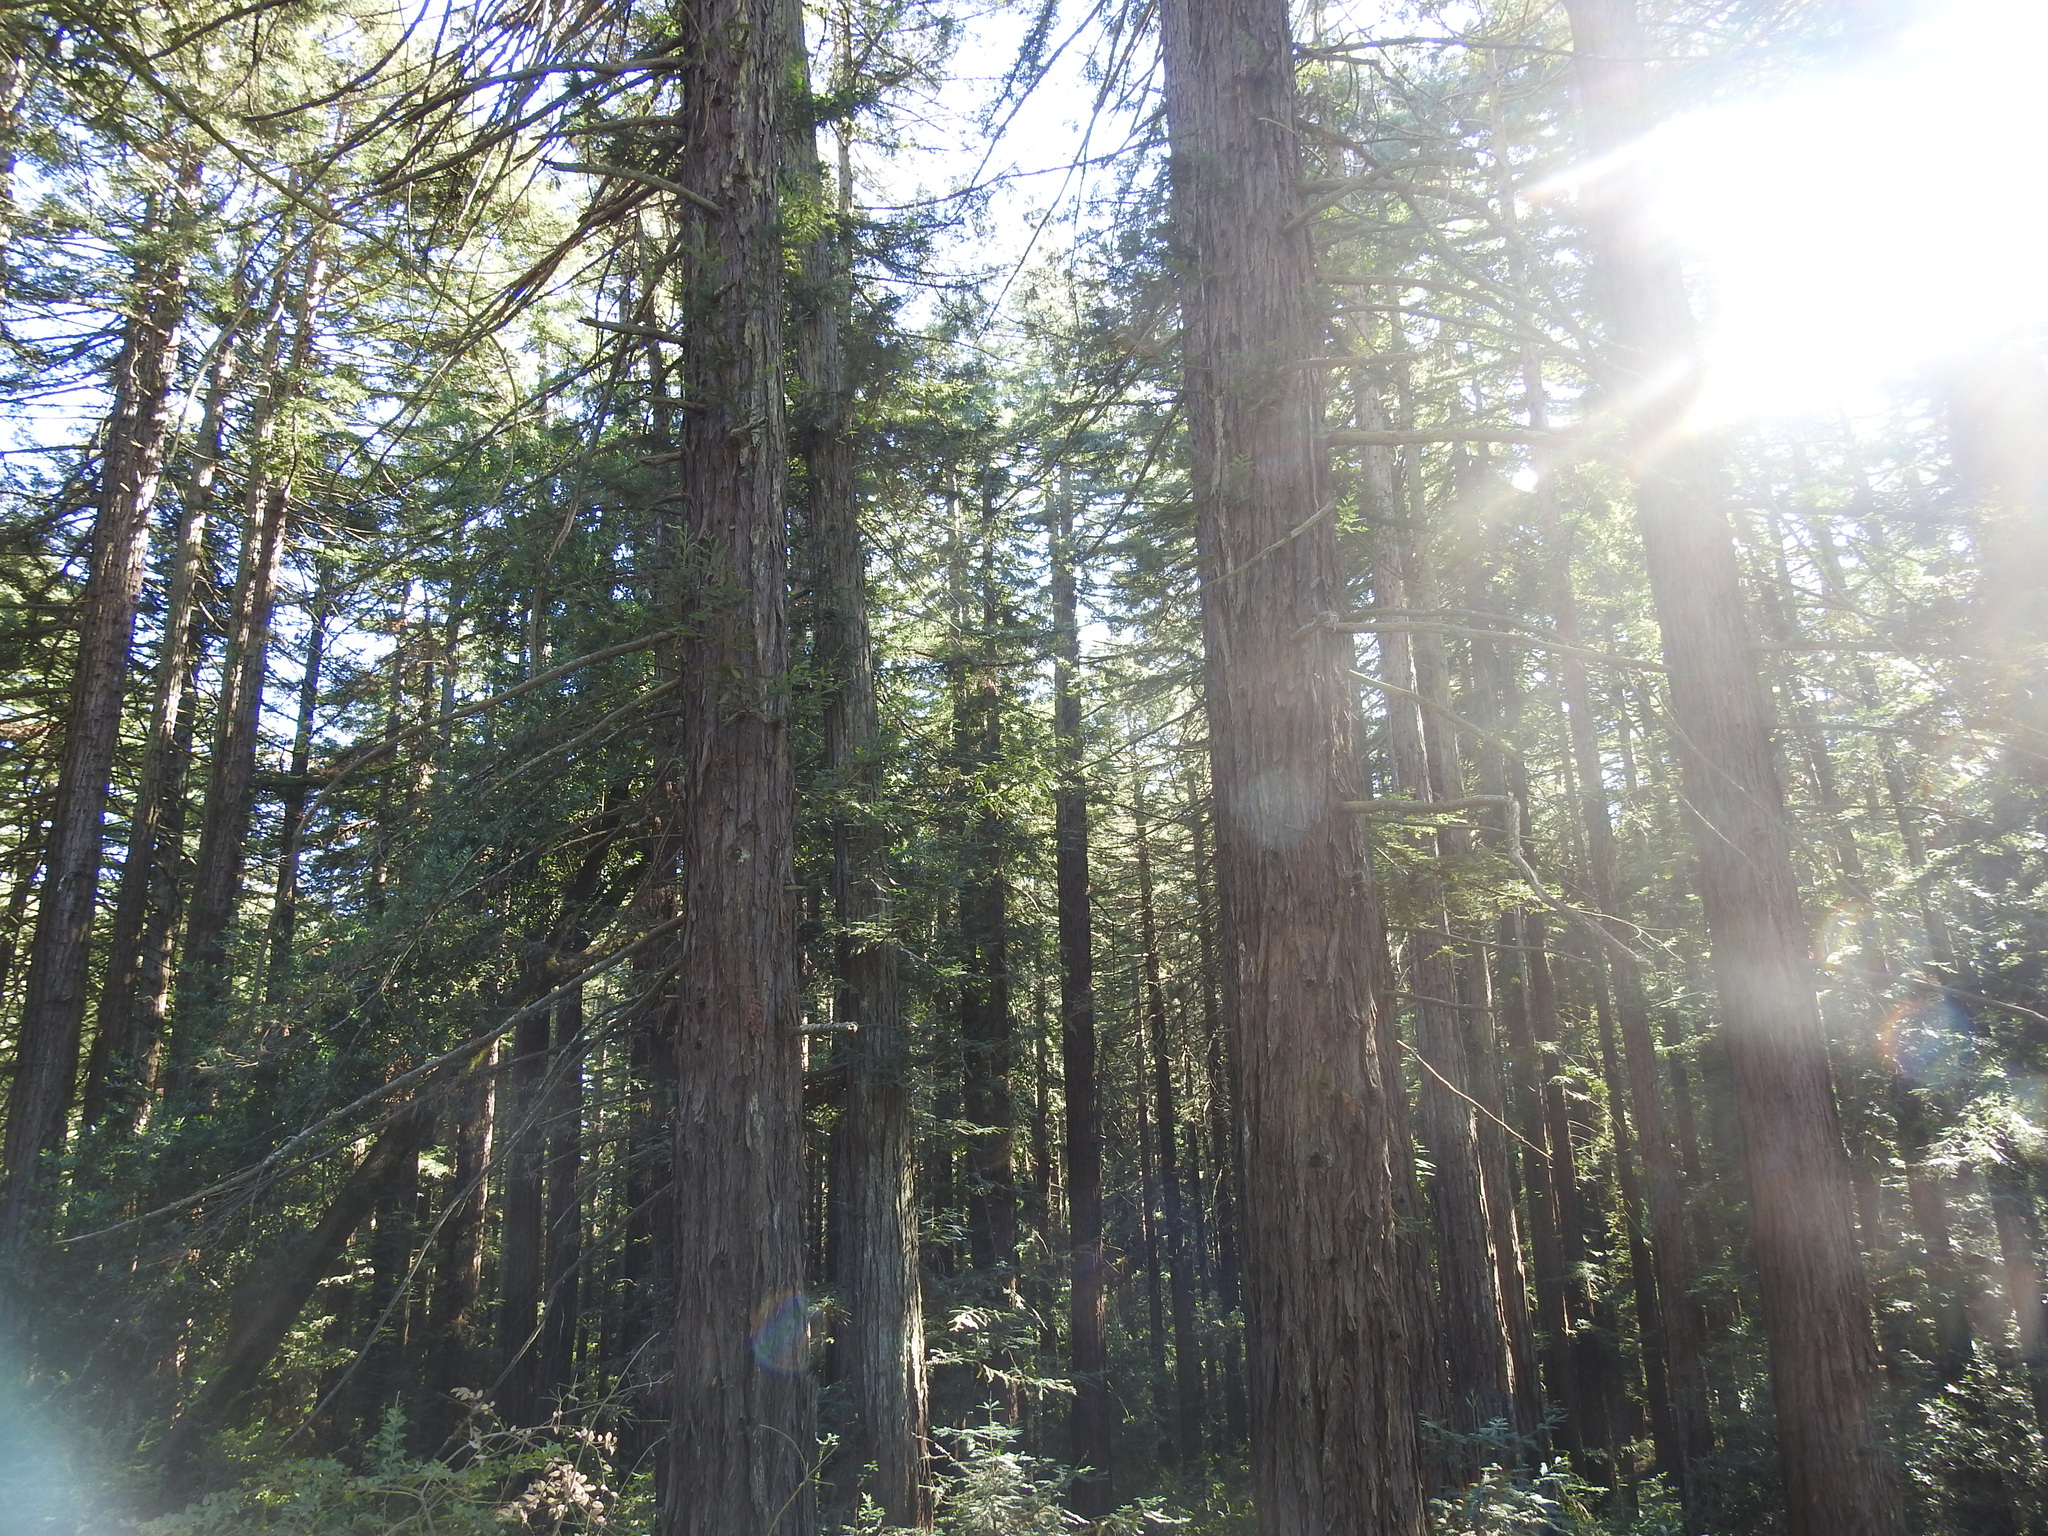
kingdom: Plantae
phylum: Tracheophyta
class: Pinopsida
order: Pinales
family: Cupressaceae
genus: Sequoia
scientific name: Sequoia sempervirens
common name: Coast redwood
